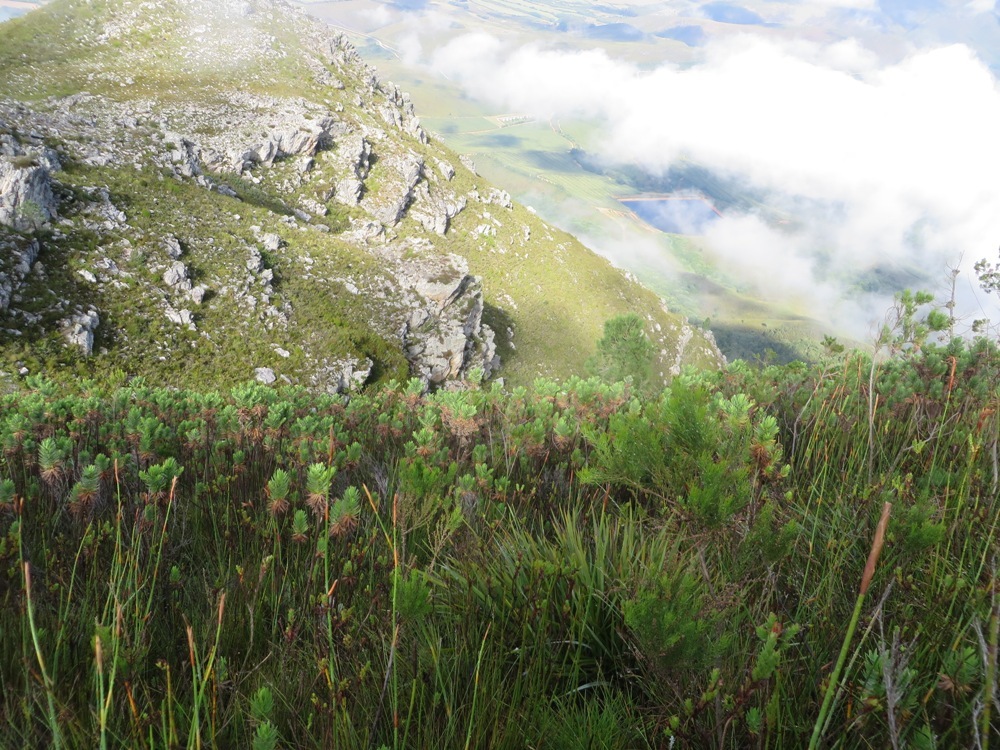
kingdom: Plantae
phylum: Tracheophyta
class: Magnoliopsida
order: Asterales
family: Asteraceae
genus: Osmitopsis
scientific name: Osmitopsis asteriscoides
